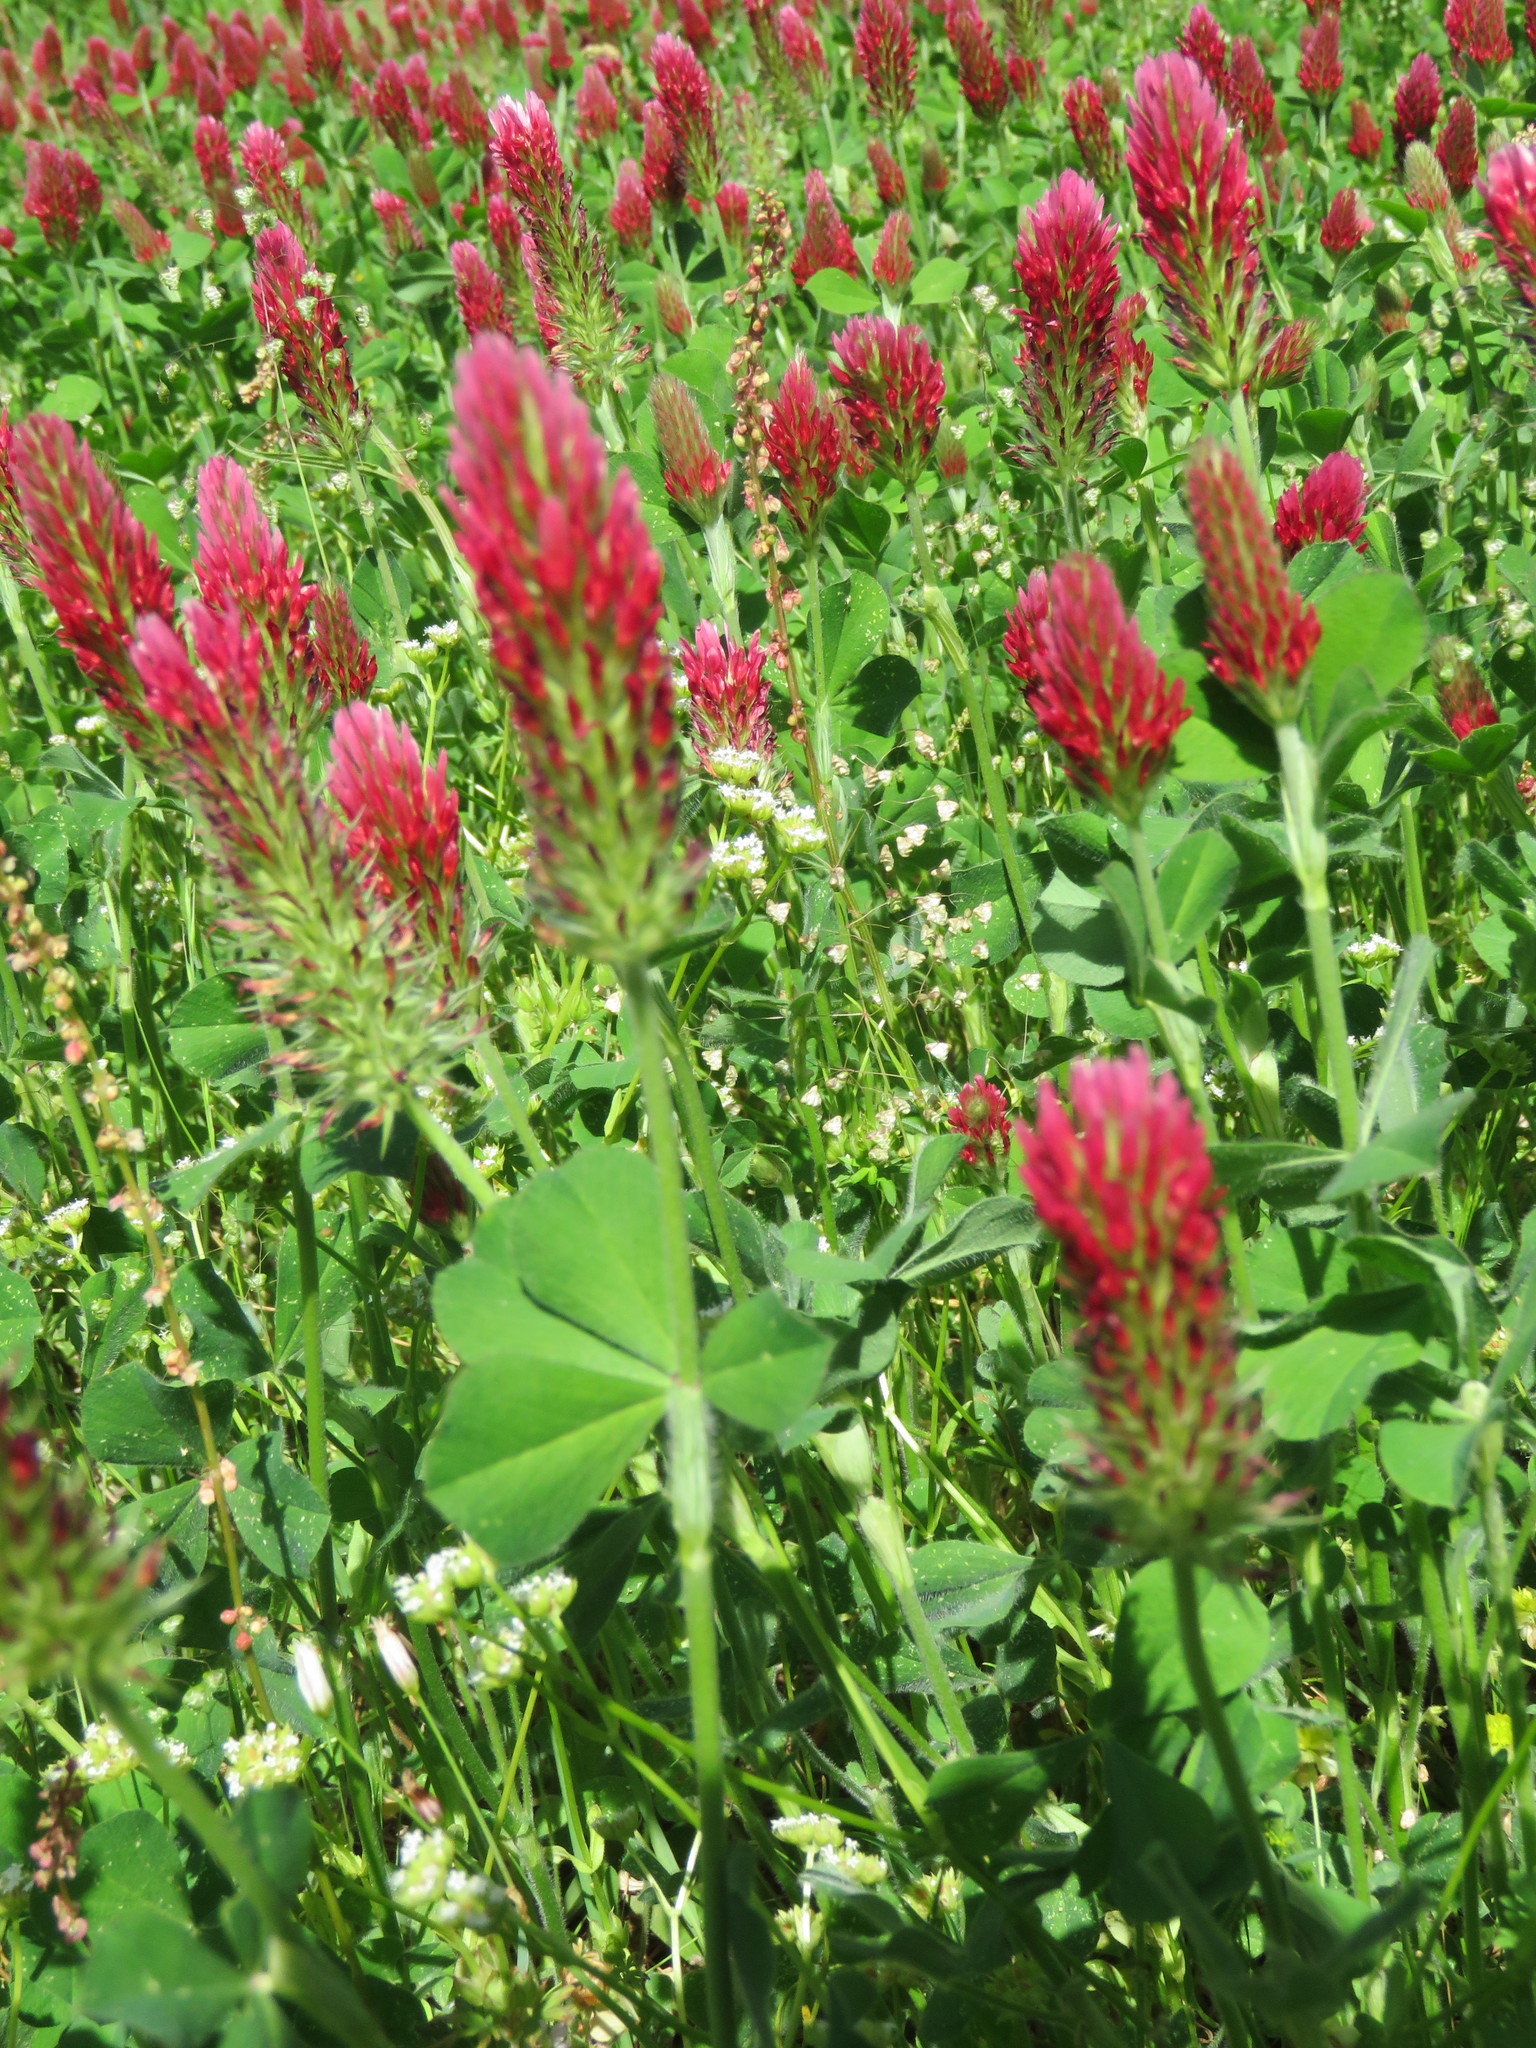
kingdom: Plantae
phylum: Tracheophyta
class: Magnoliopsida
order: Fabales
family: Fabaceae
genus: Trifolium
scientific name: Trifolium incarnatum
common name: Crimson clover
